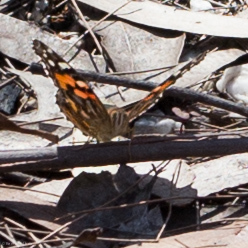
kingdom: Animalia
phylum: Arthropoda
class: Insecta
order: Lepidoptera
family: Nymphalidae
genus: Vanessa
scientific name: Vanessa kershawi
